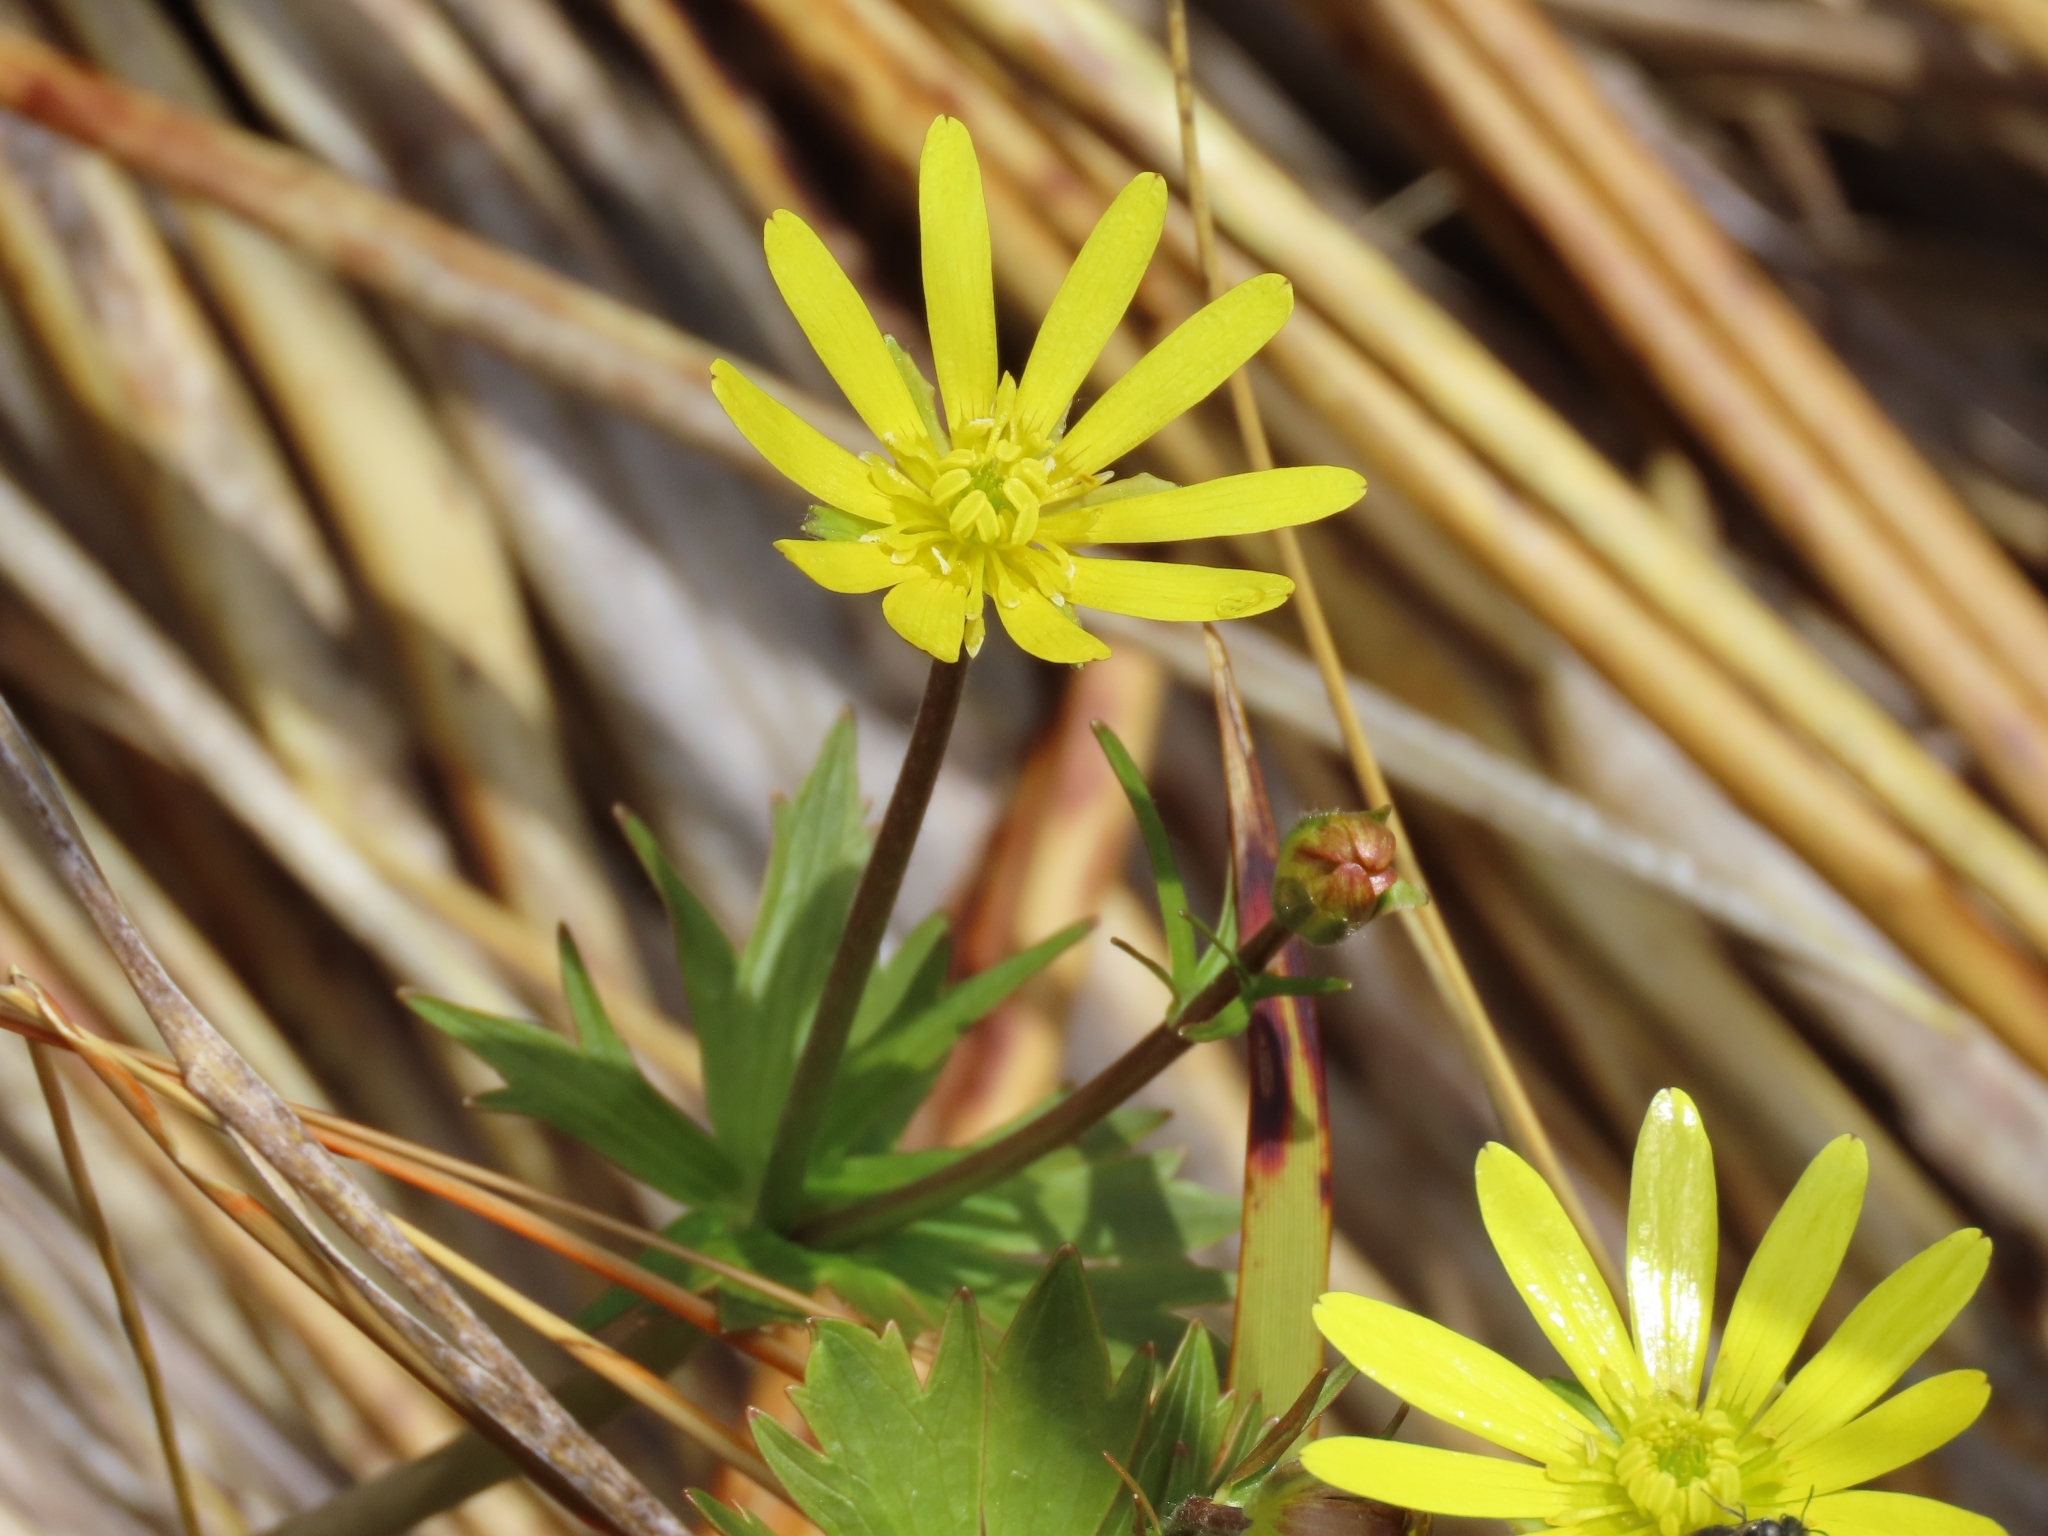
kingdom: Plantae
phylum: Tracheophyta
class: Magnoliopsida
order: Ranunculales
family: Ranunculaceae
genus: Ranunculus
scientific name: Ranunculus verticillatus
